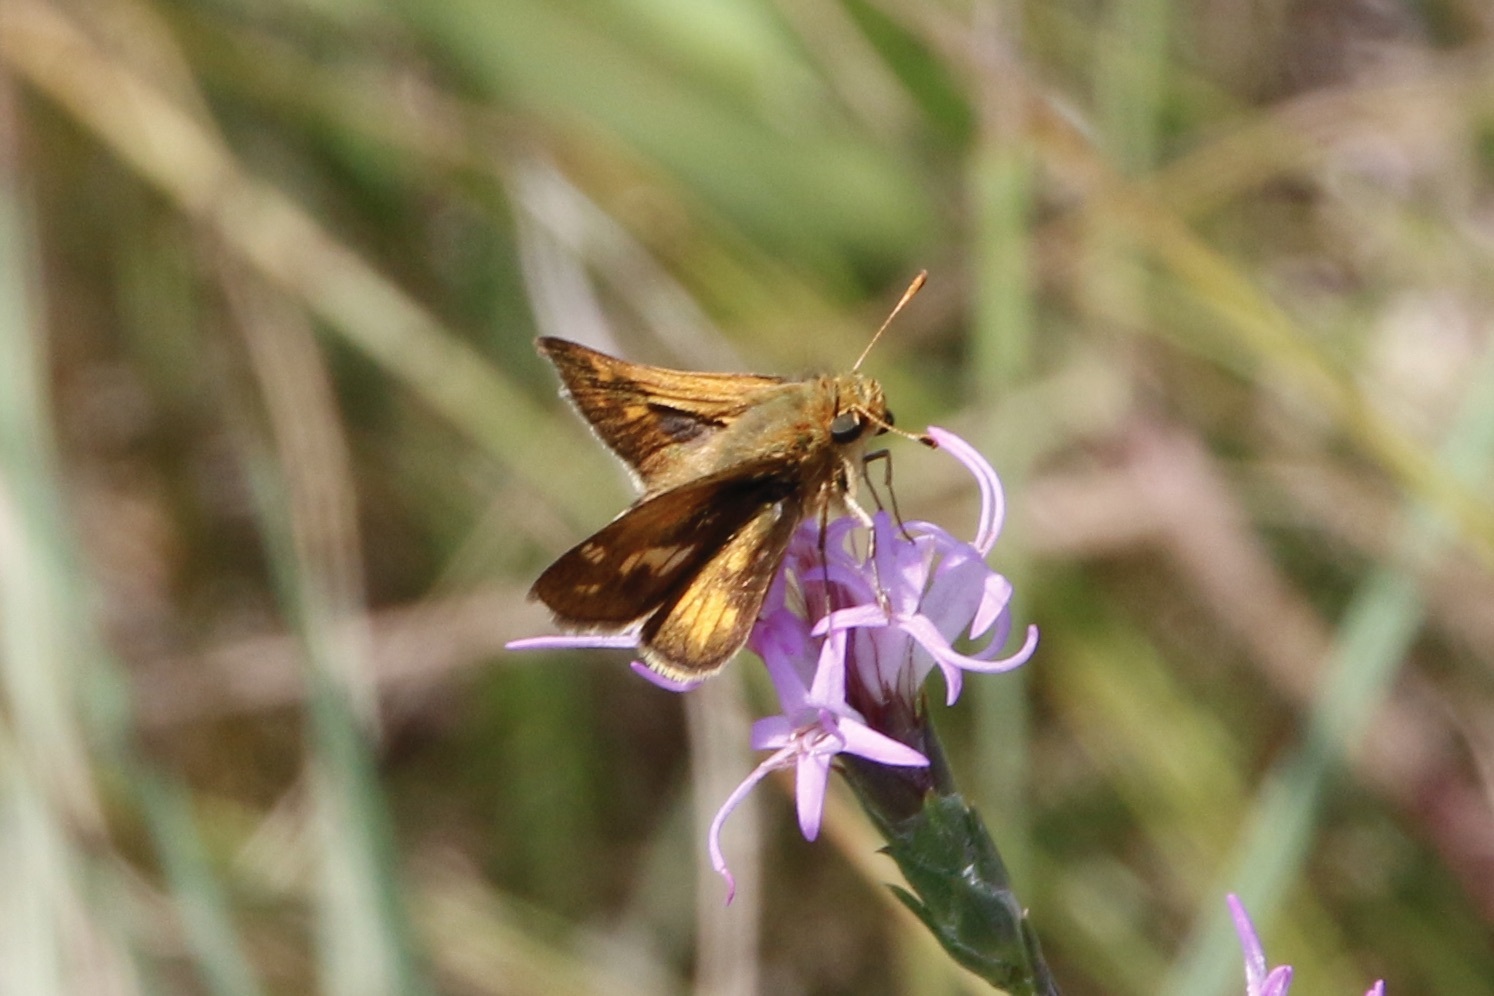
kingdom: Animalia
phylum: Arthropoda
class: Insecta
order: Lepidoptera
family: Hesperiidae
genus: Polites
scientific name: Polites coras
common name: Peck's skipper
